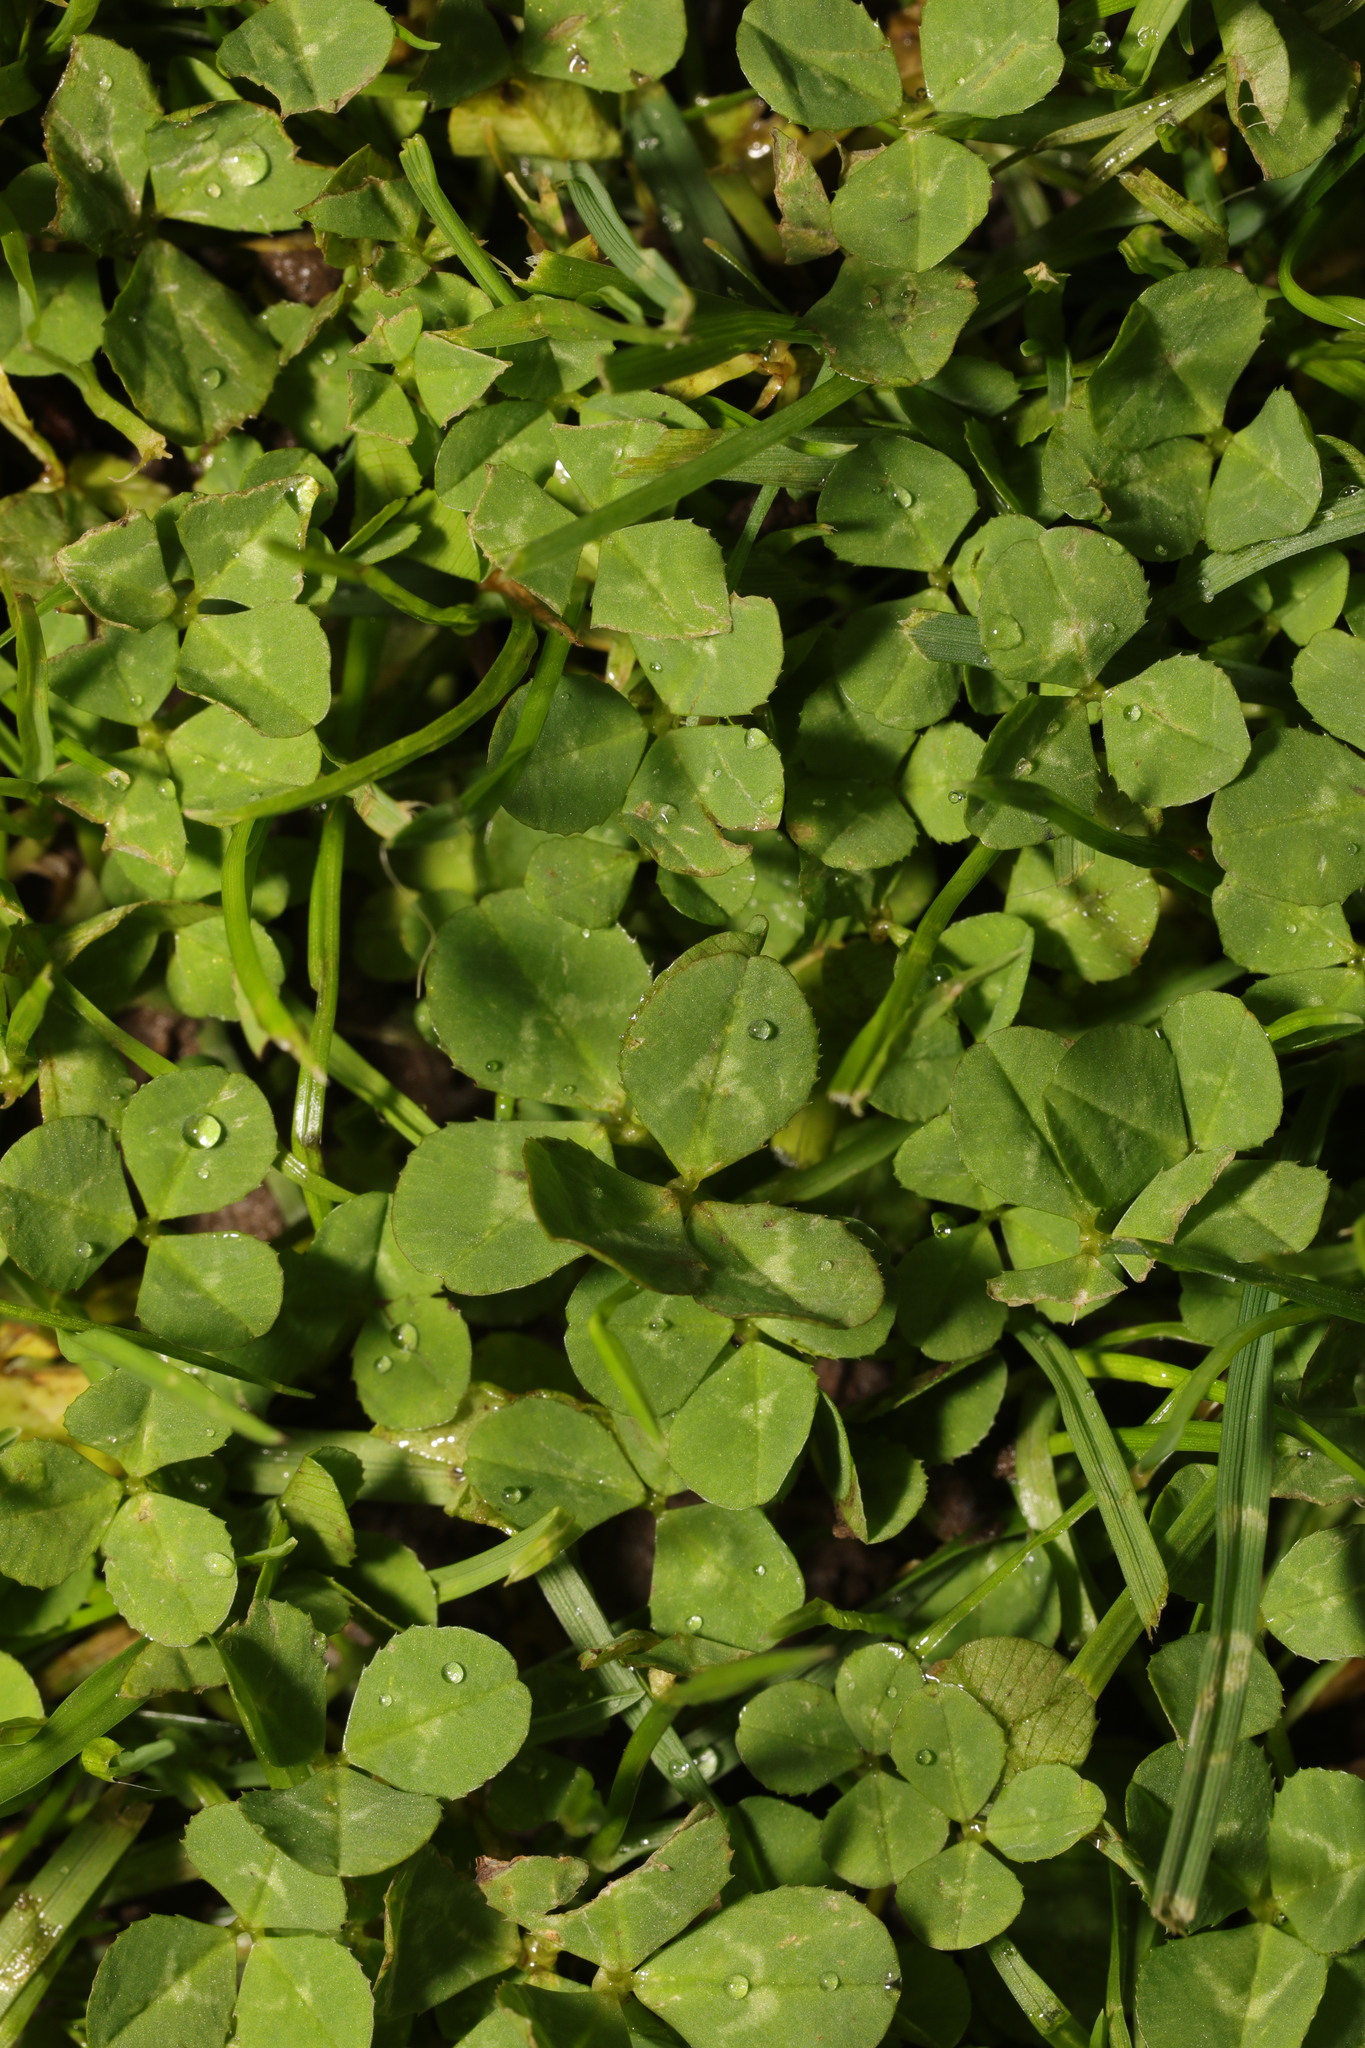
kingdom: Plantae
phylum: Tracheophyta
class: Magnoliopsida
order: Fabales
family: Fabaceae
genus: Trifolium
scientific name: Trifolium repens
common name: White clover
